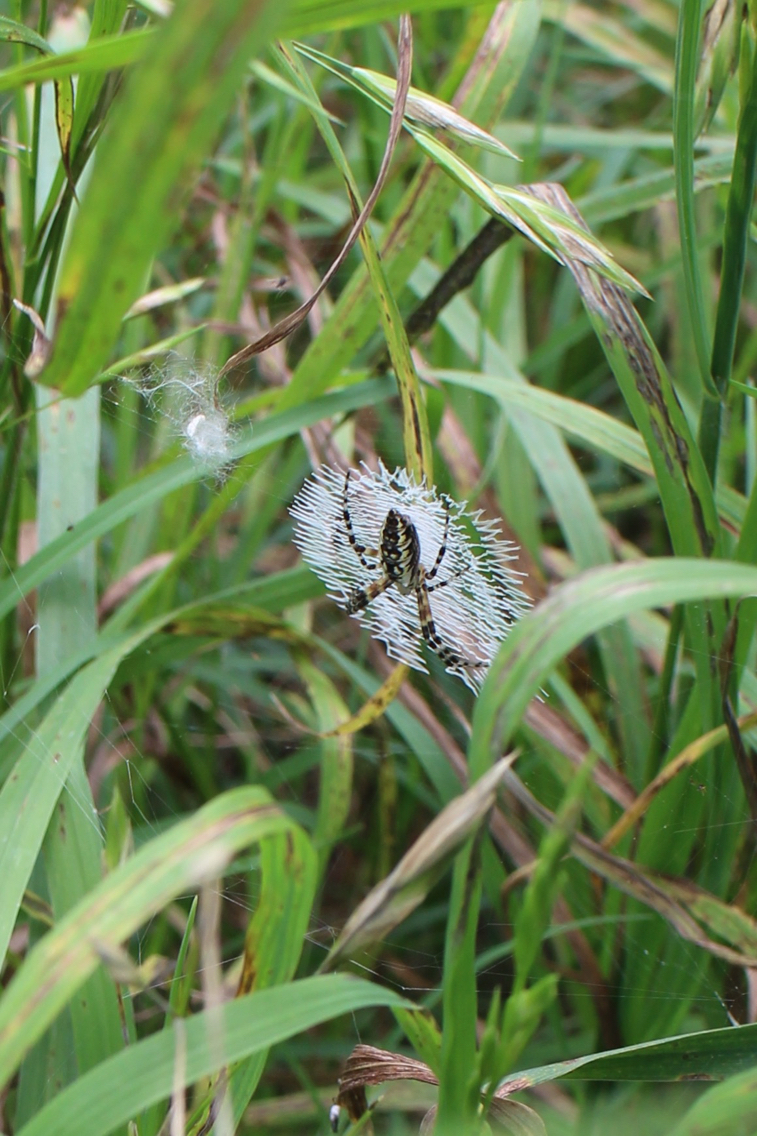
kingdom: Animalia
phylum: Arthropoda
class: Arachnida
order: Araneae
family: Araneidae
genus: Argiope
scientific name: Argiope aurantia
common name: Orb weavers
